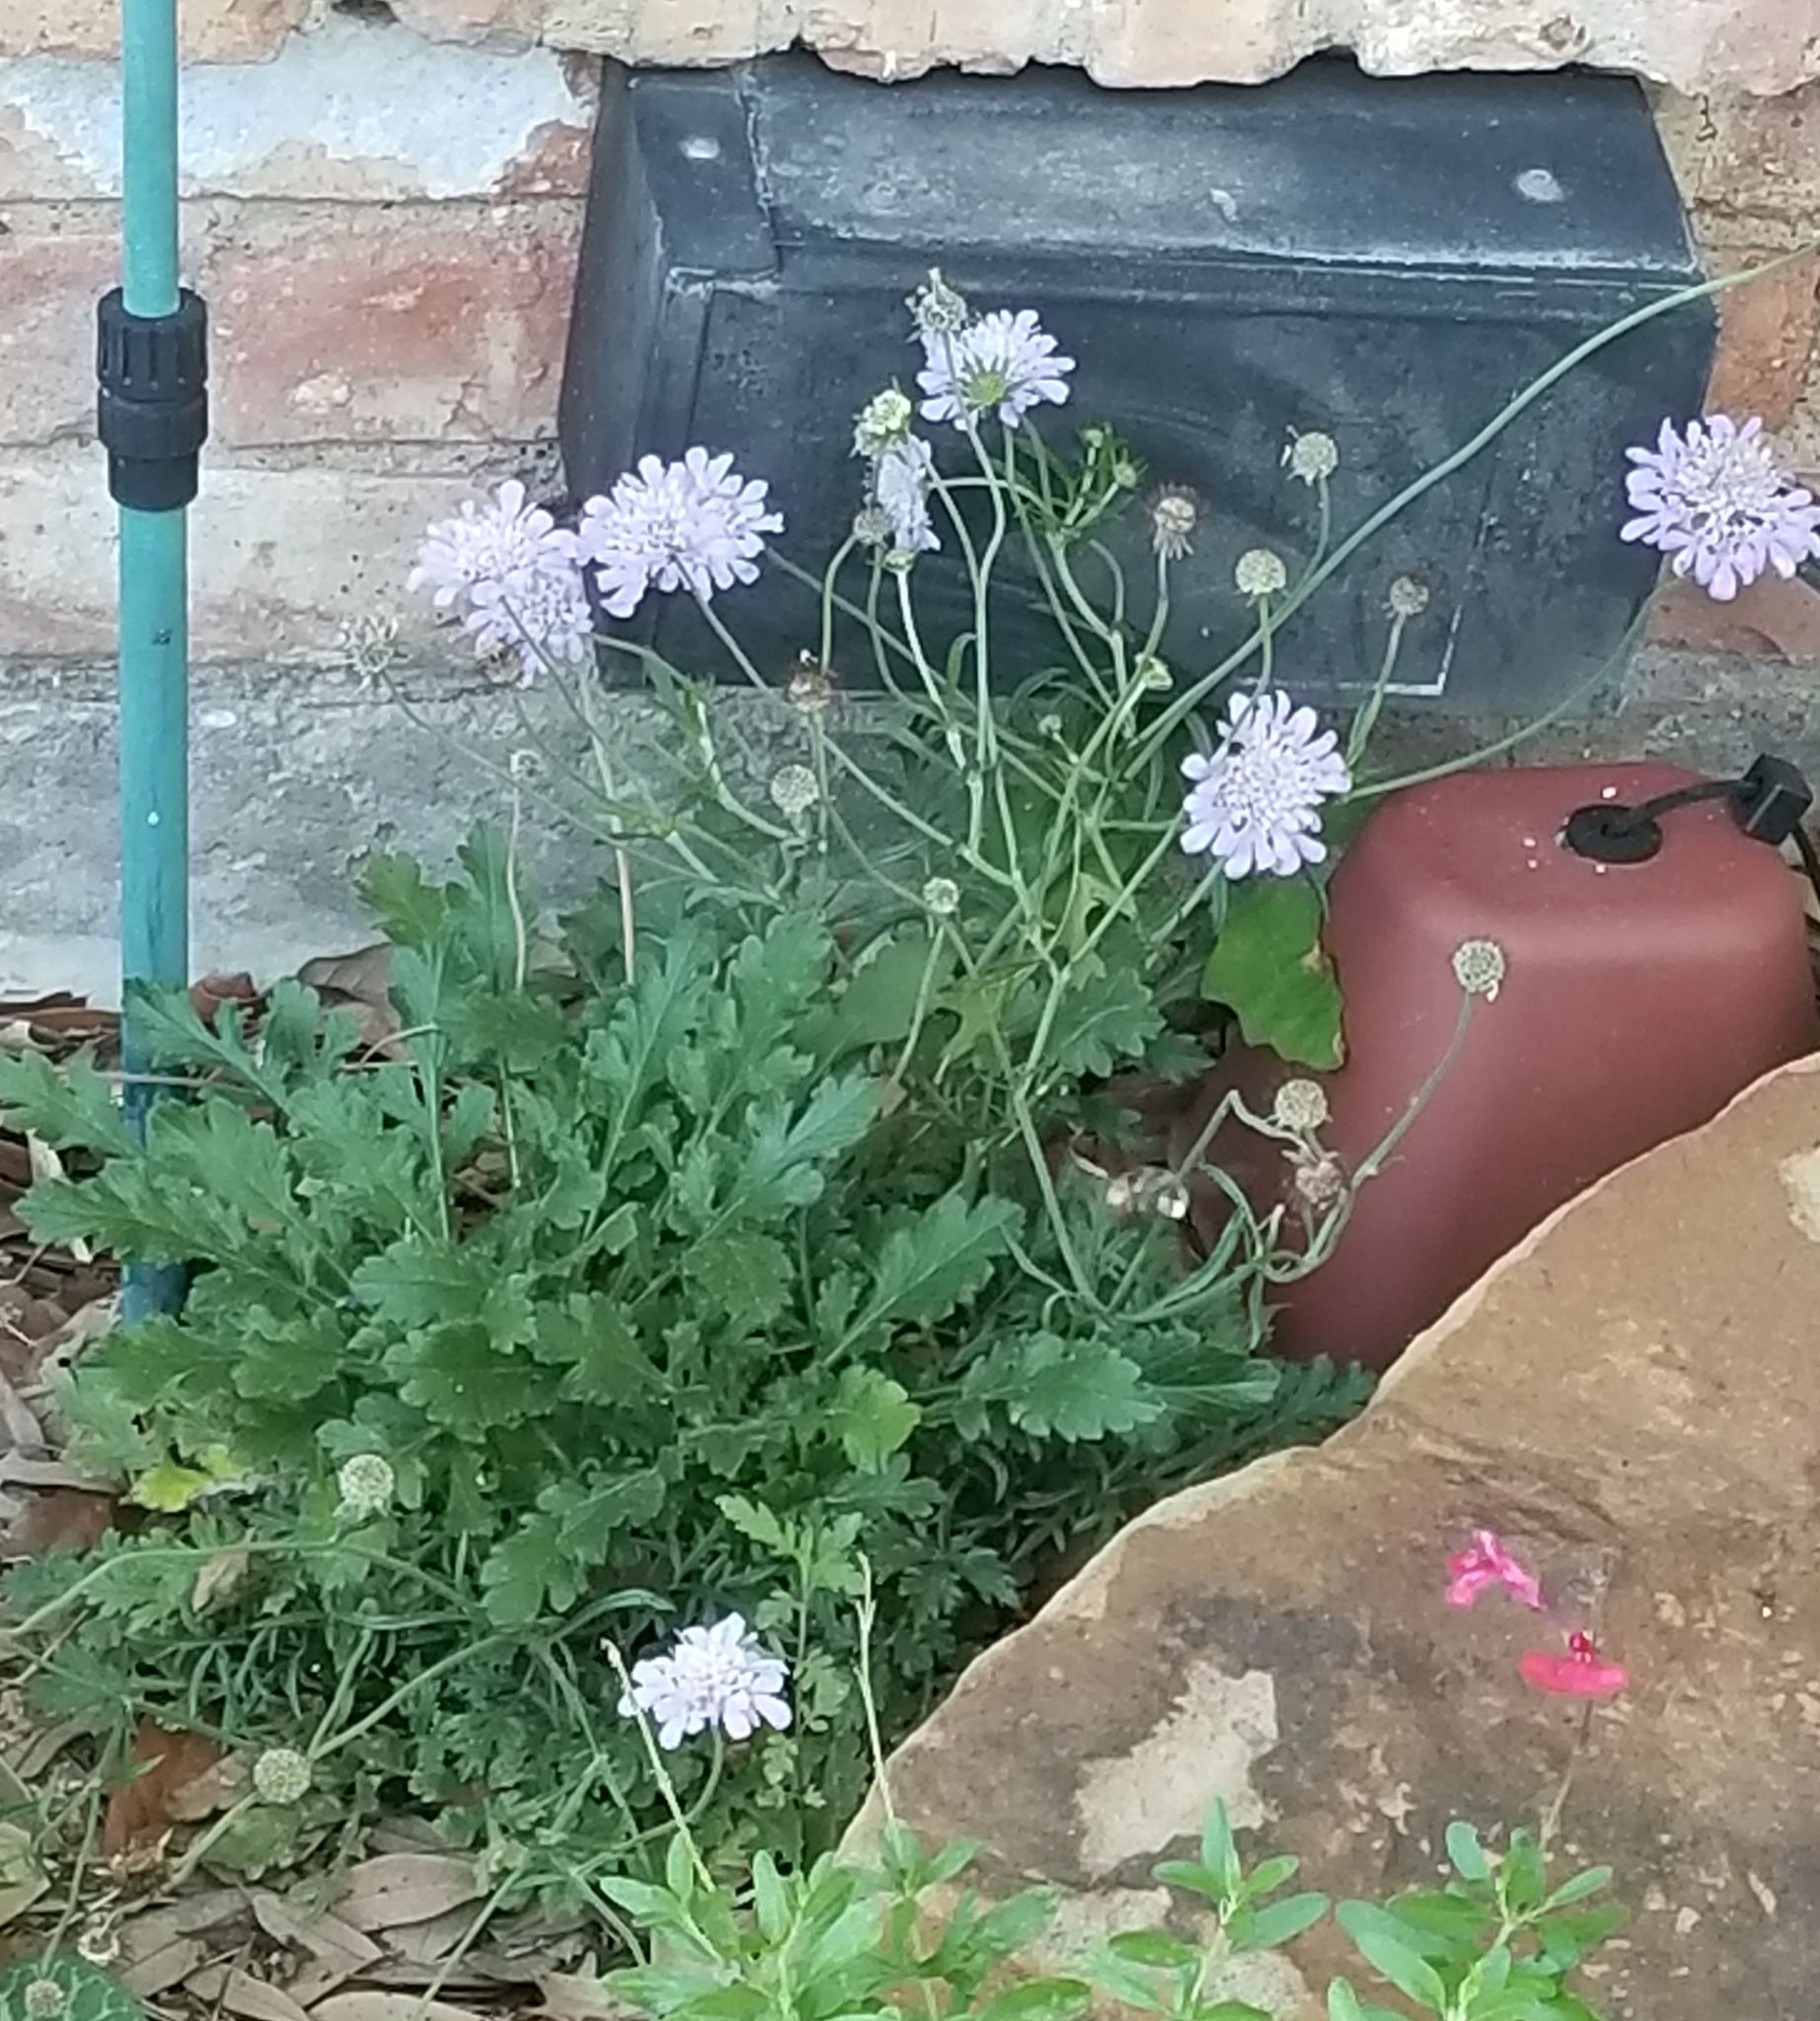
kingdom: Plantae
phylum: Tracheophyta
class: Magnoliopsida
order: Dipsacales
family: Caprifoliaceae
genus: Sixalix
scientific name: Sixalix atropurpurea
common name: Sweet scabious
